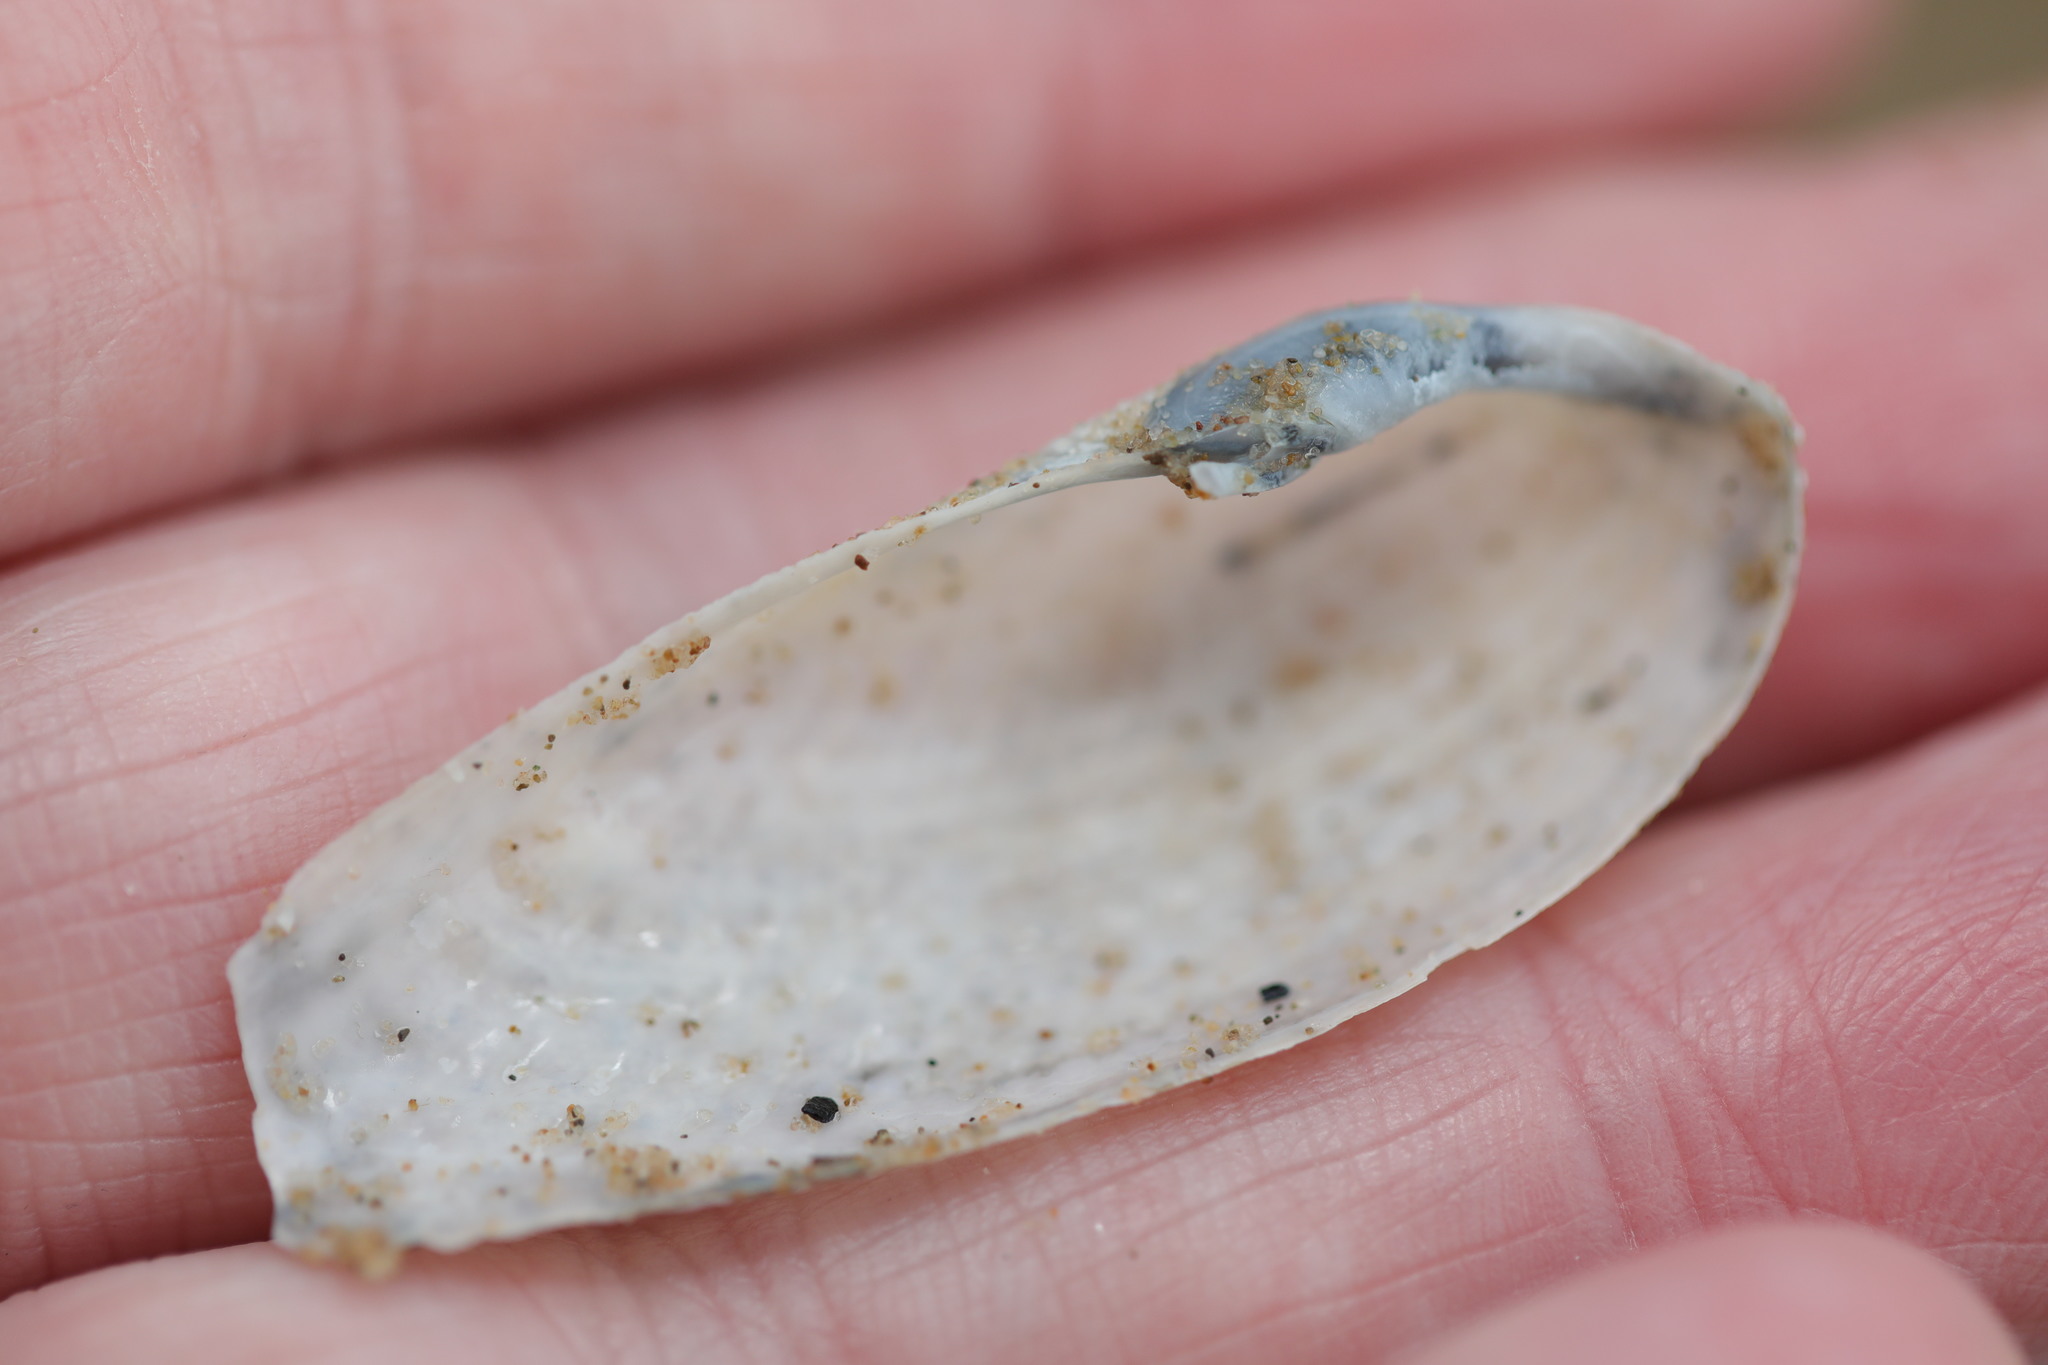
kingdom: Animalia
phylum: Mollusca
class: Bivalvia
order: Myida
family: Pholadidae
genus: Barnea
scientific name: Barnea candida
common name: White piddock
